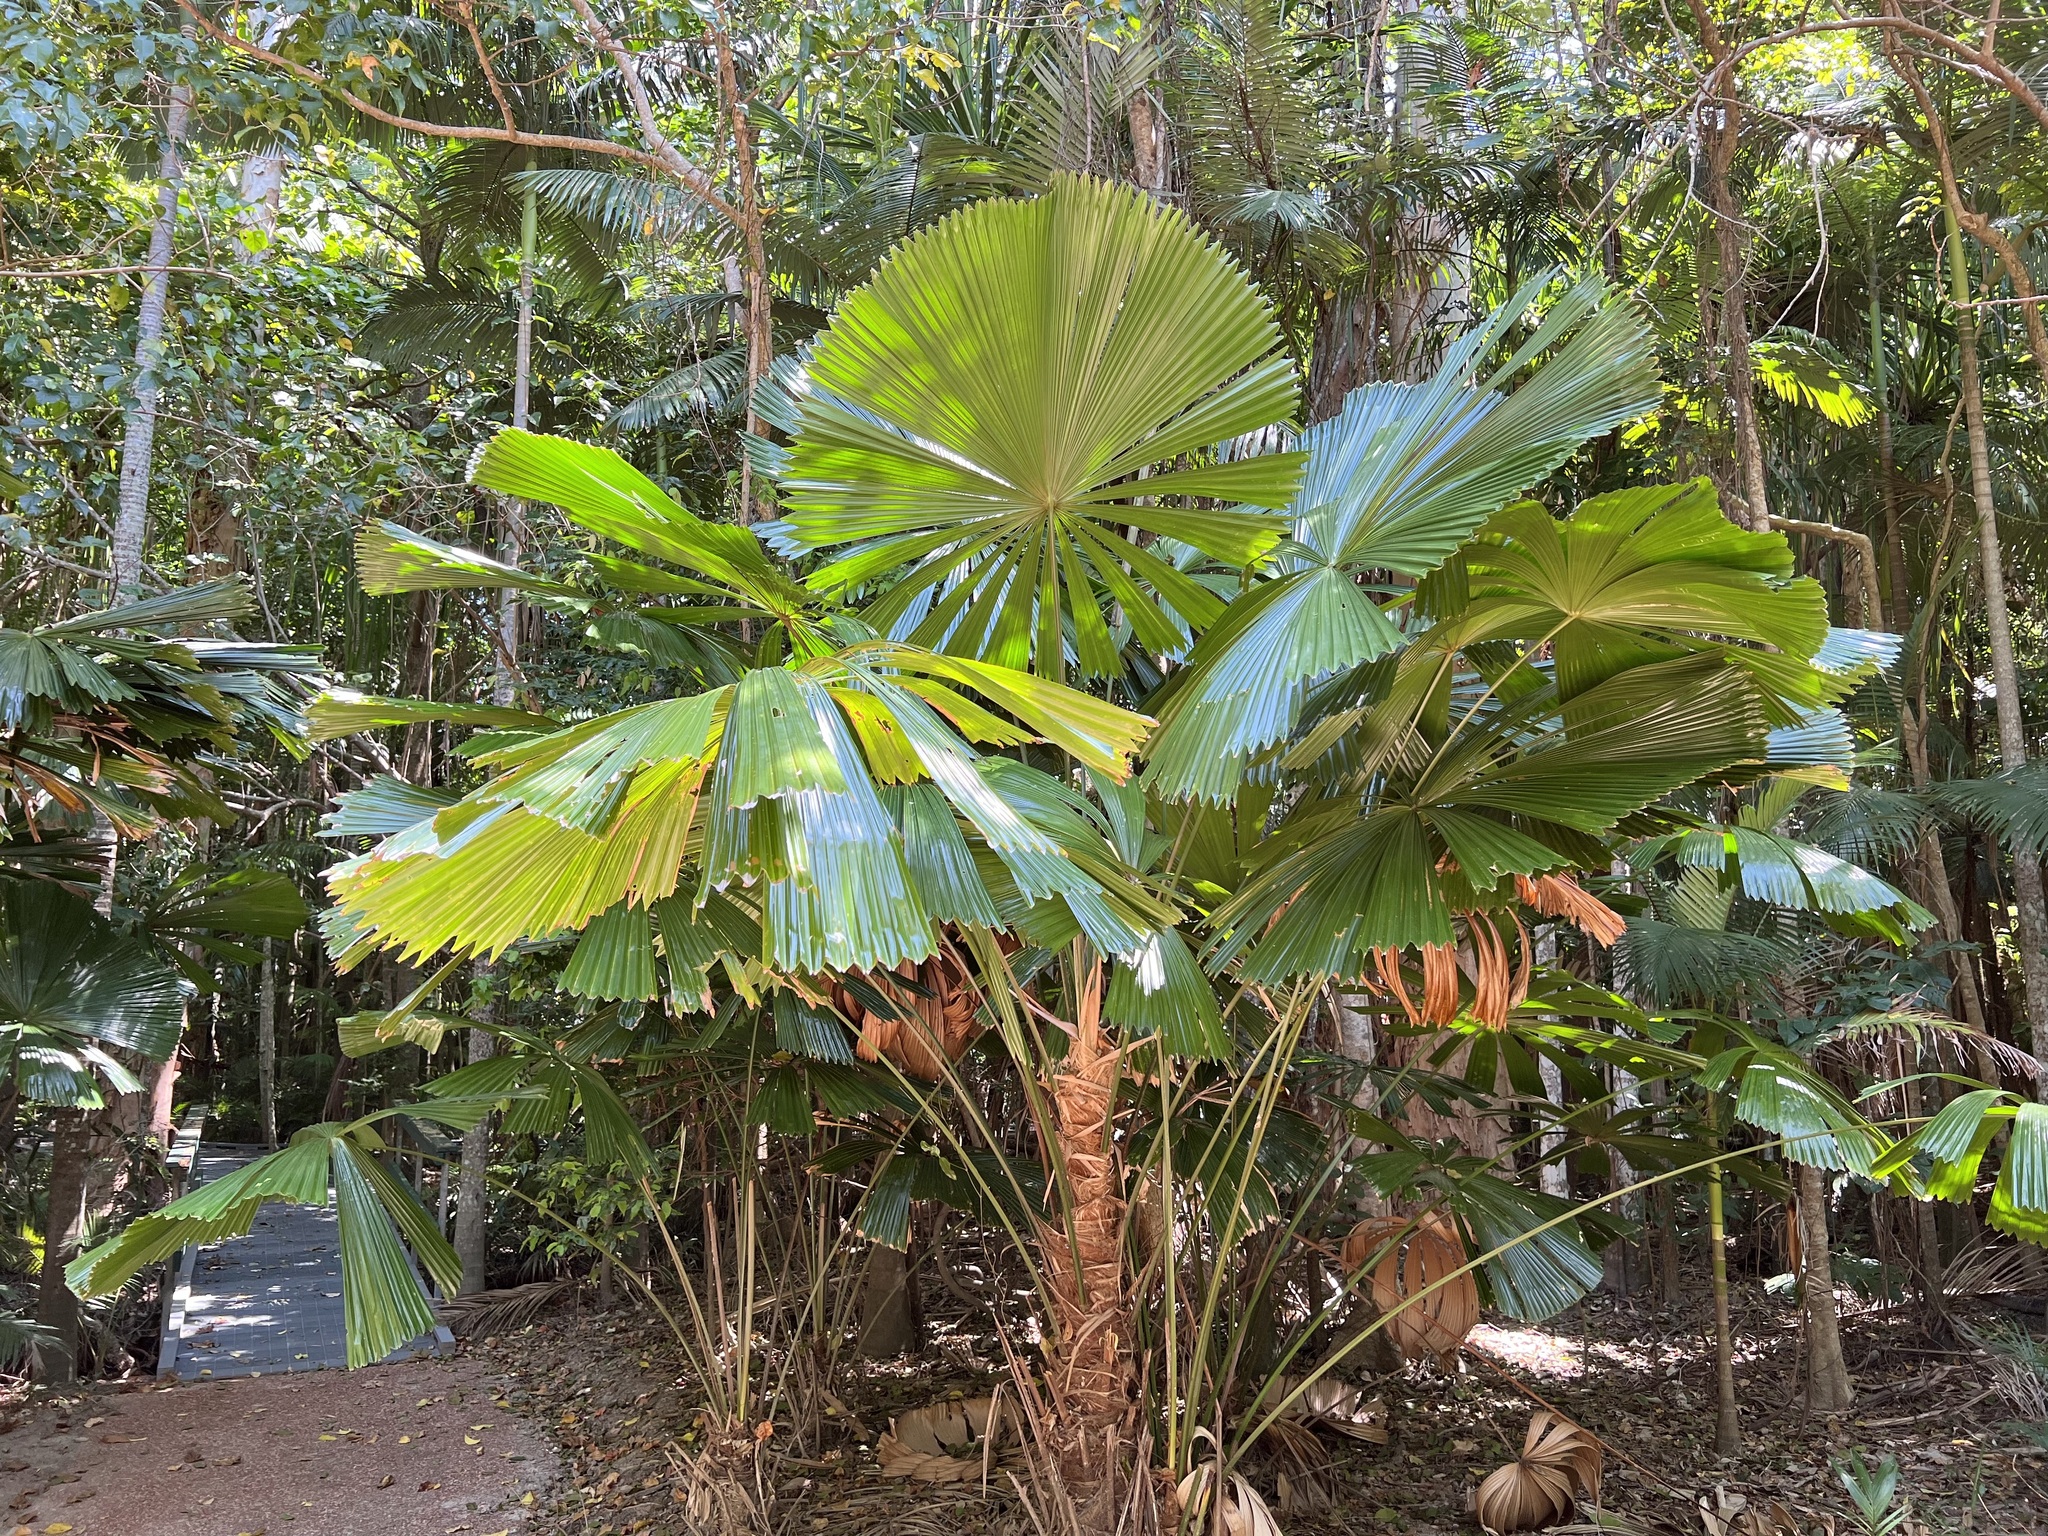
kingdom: Plantae
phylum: Tracheophyta
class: Liliopsida
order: Arecales
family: Arecaceae
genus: Licuala
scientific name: Licuala ramsayi
